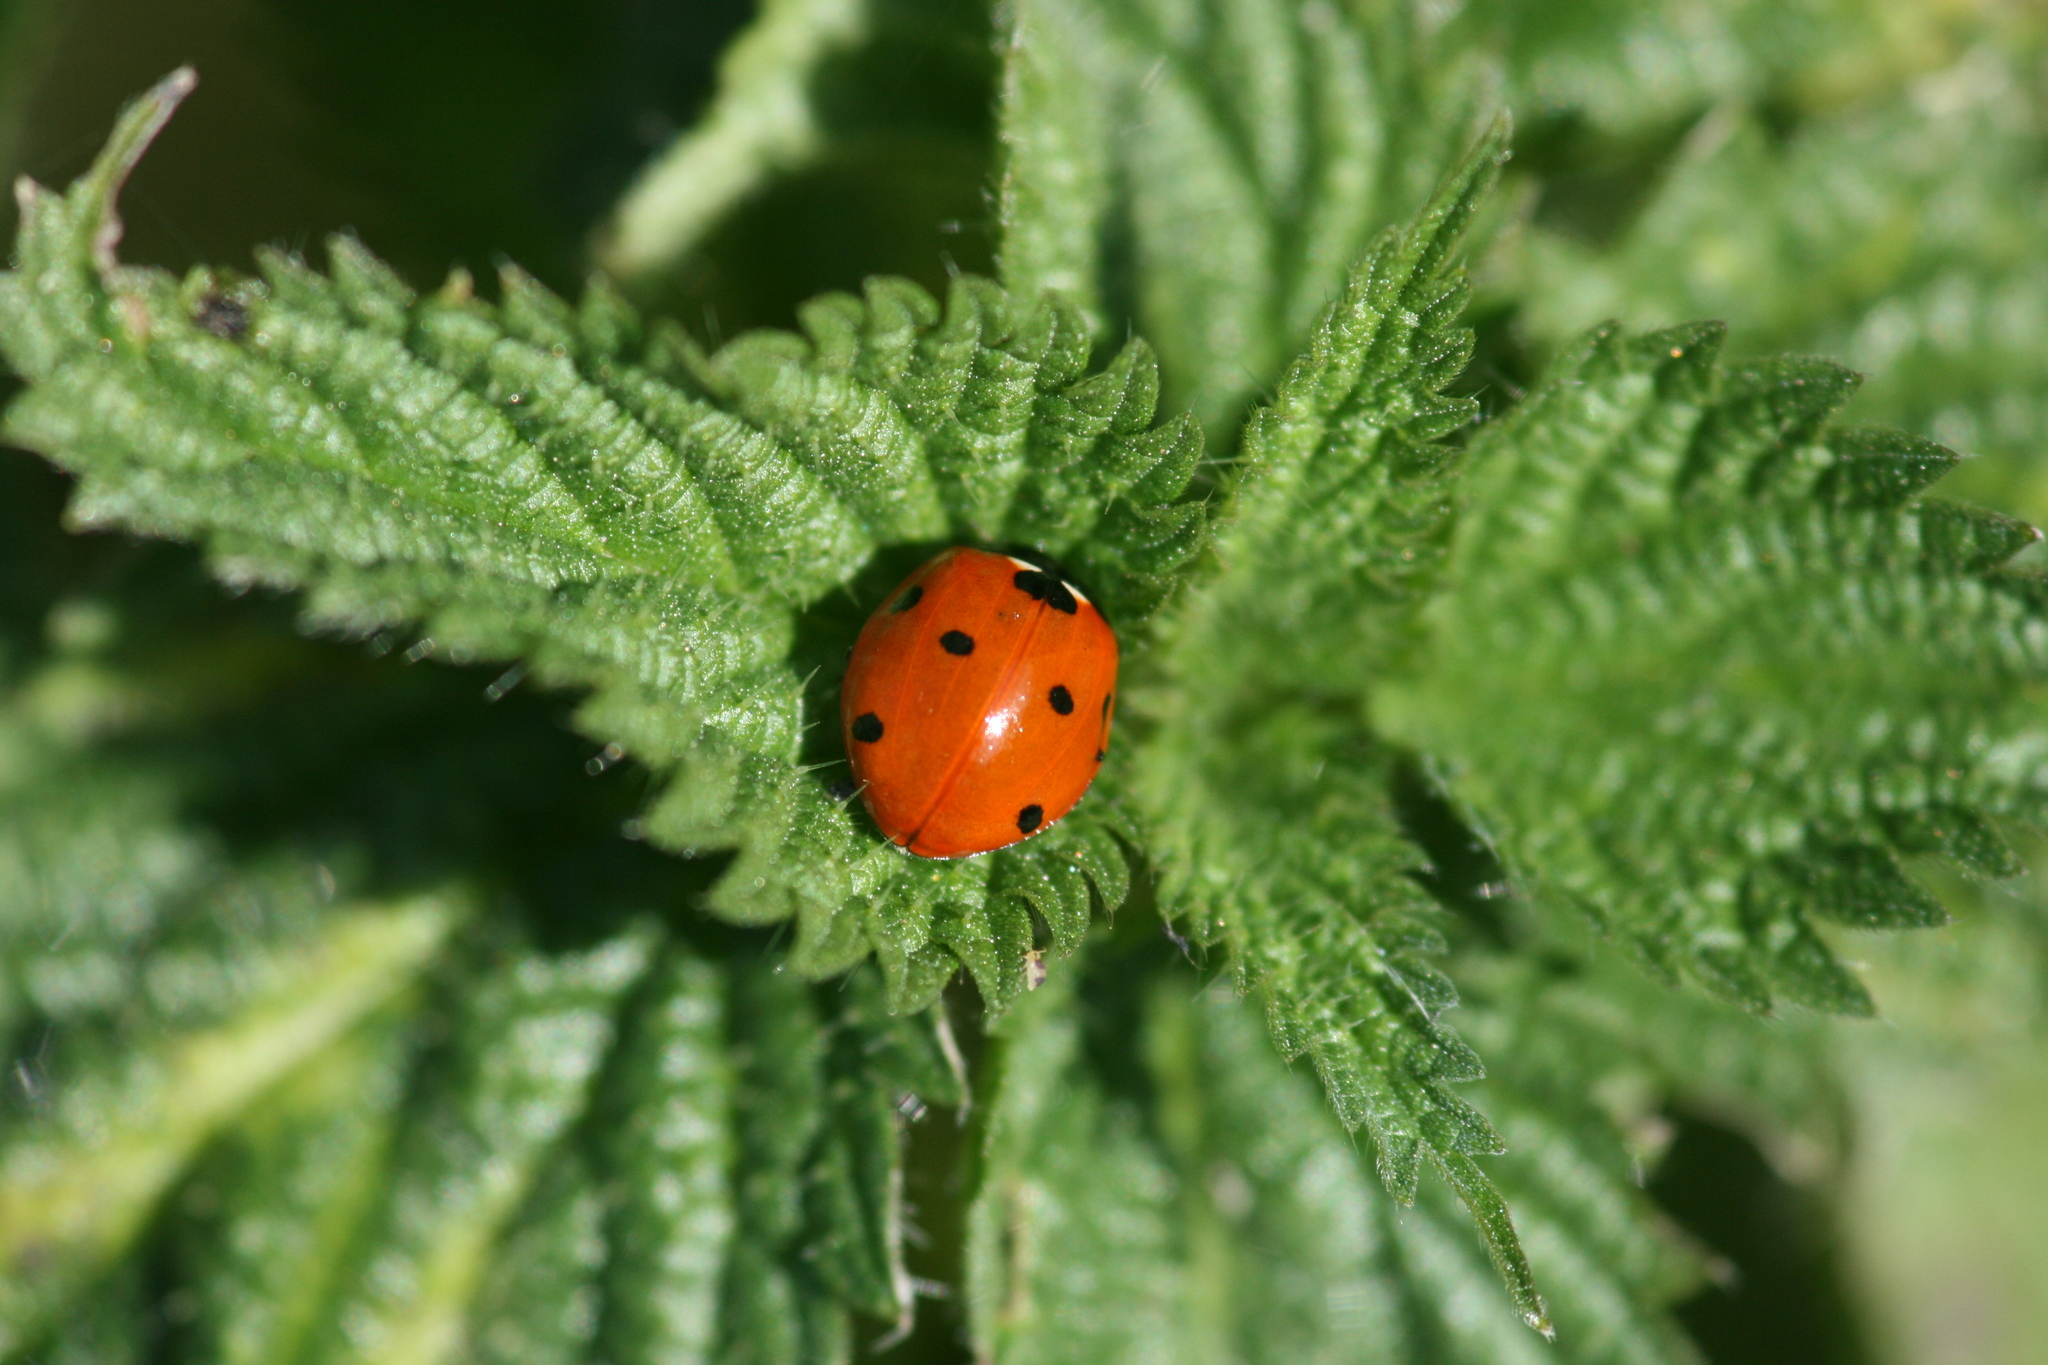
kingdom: Animalia
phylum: Arthropoda
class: Insecta
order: Coleoptera
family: Coccinellidae
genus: Coccinella
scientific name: Coccinella septempunctata
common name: Sevenspotted lady beetle
